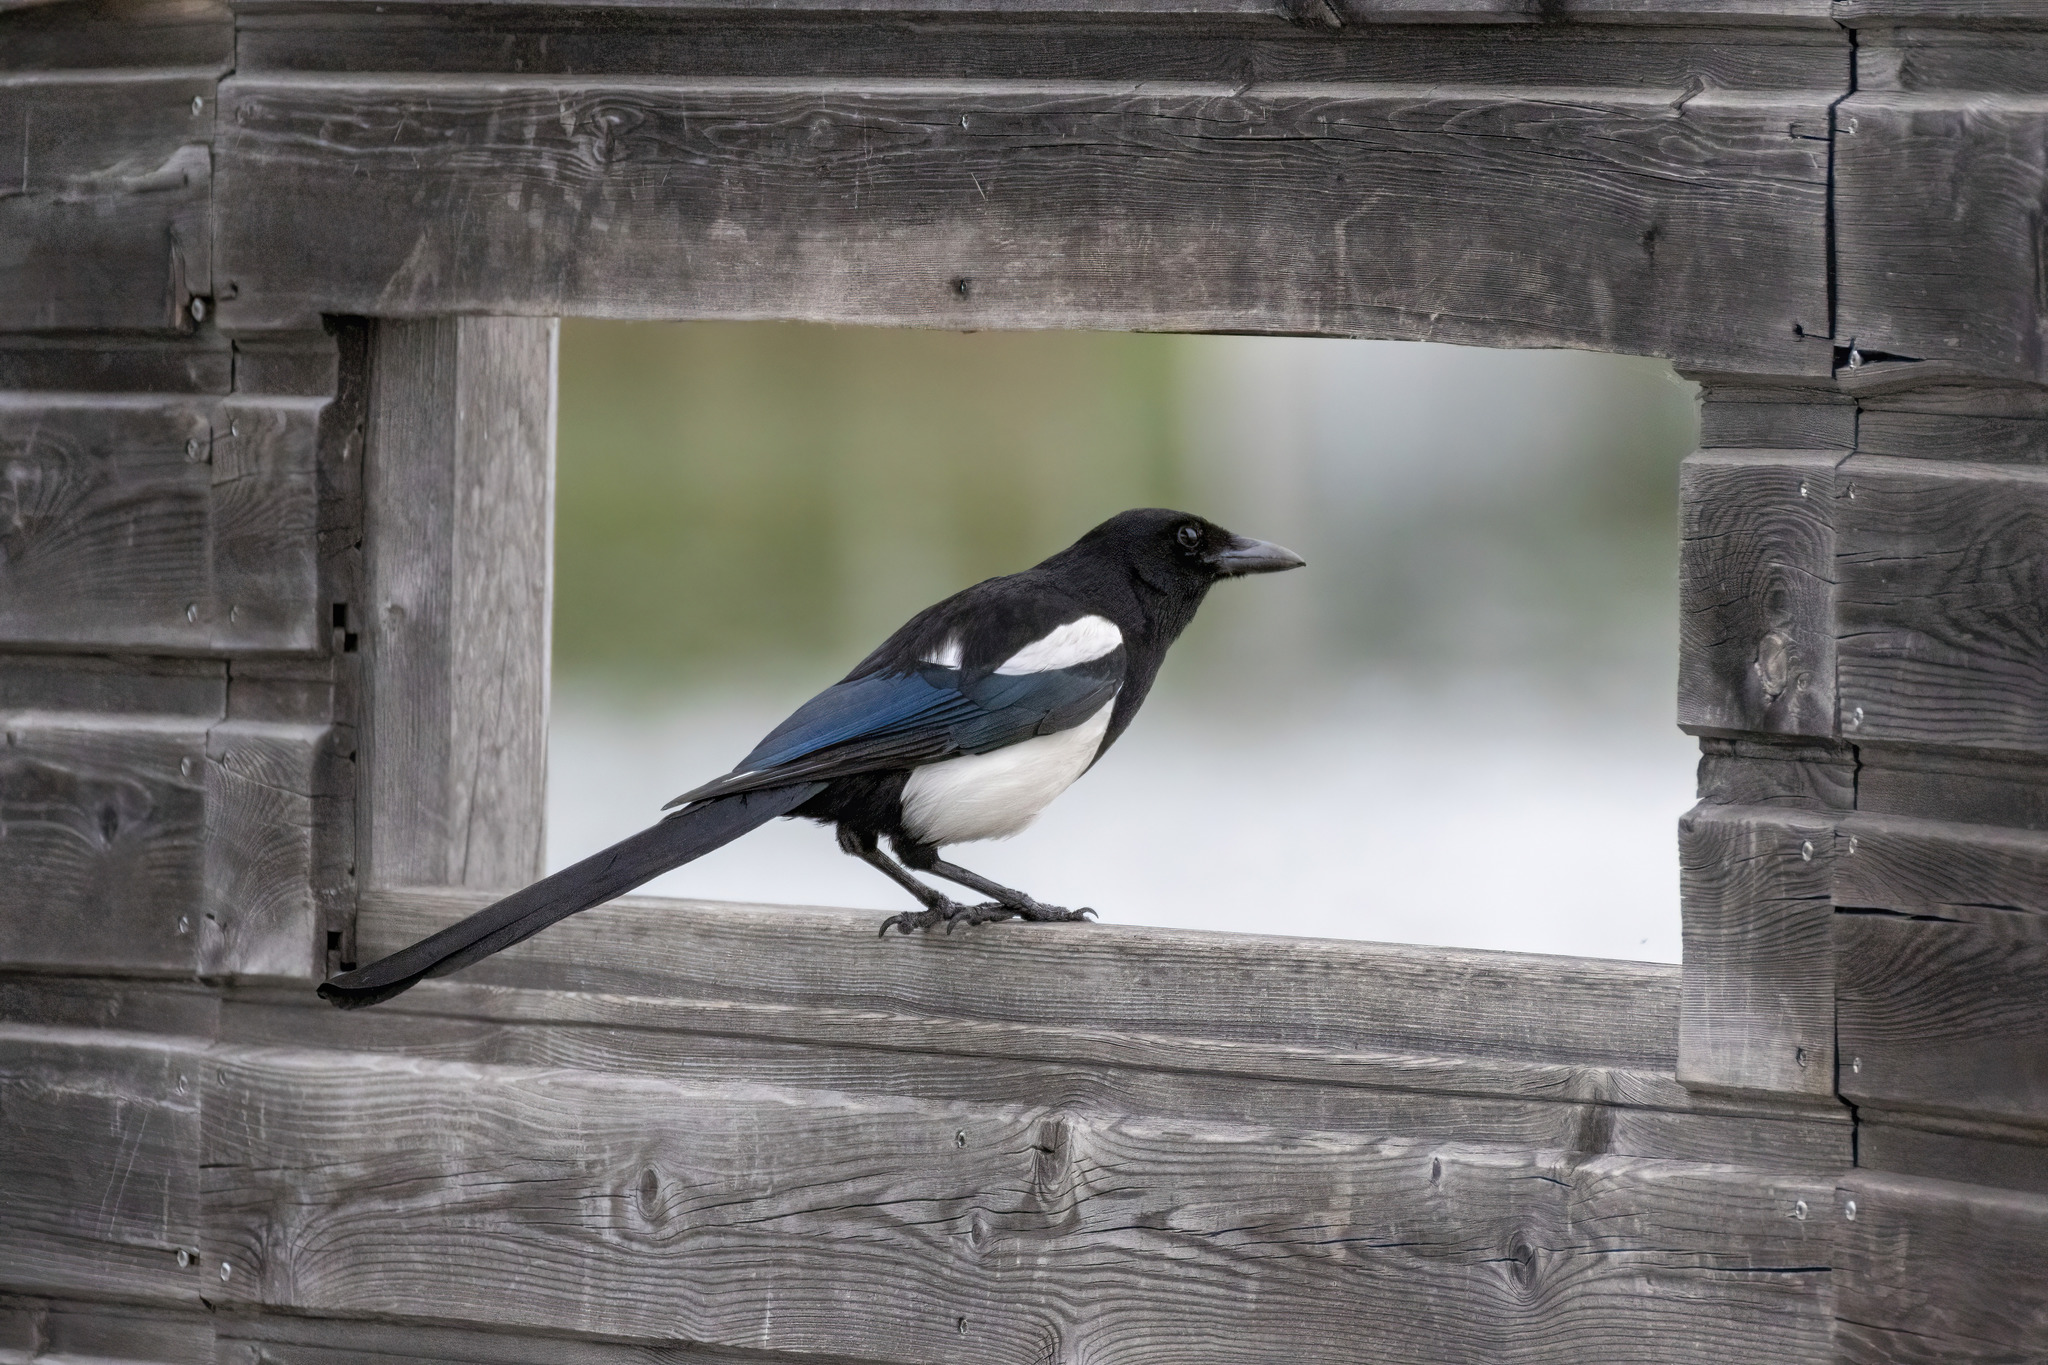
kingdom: Animalia
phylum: Chordata
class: Aves
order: Passeriformes
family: Corvidae
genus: Pica
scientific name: Pica pica
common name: Eurasian magpie
